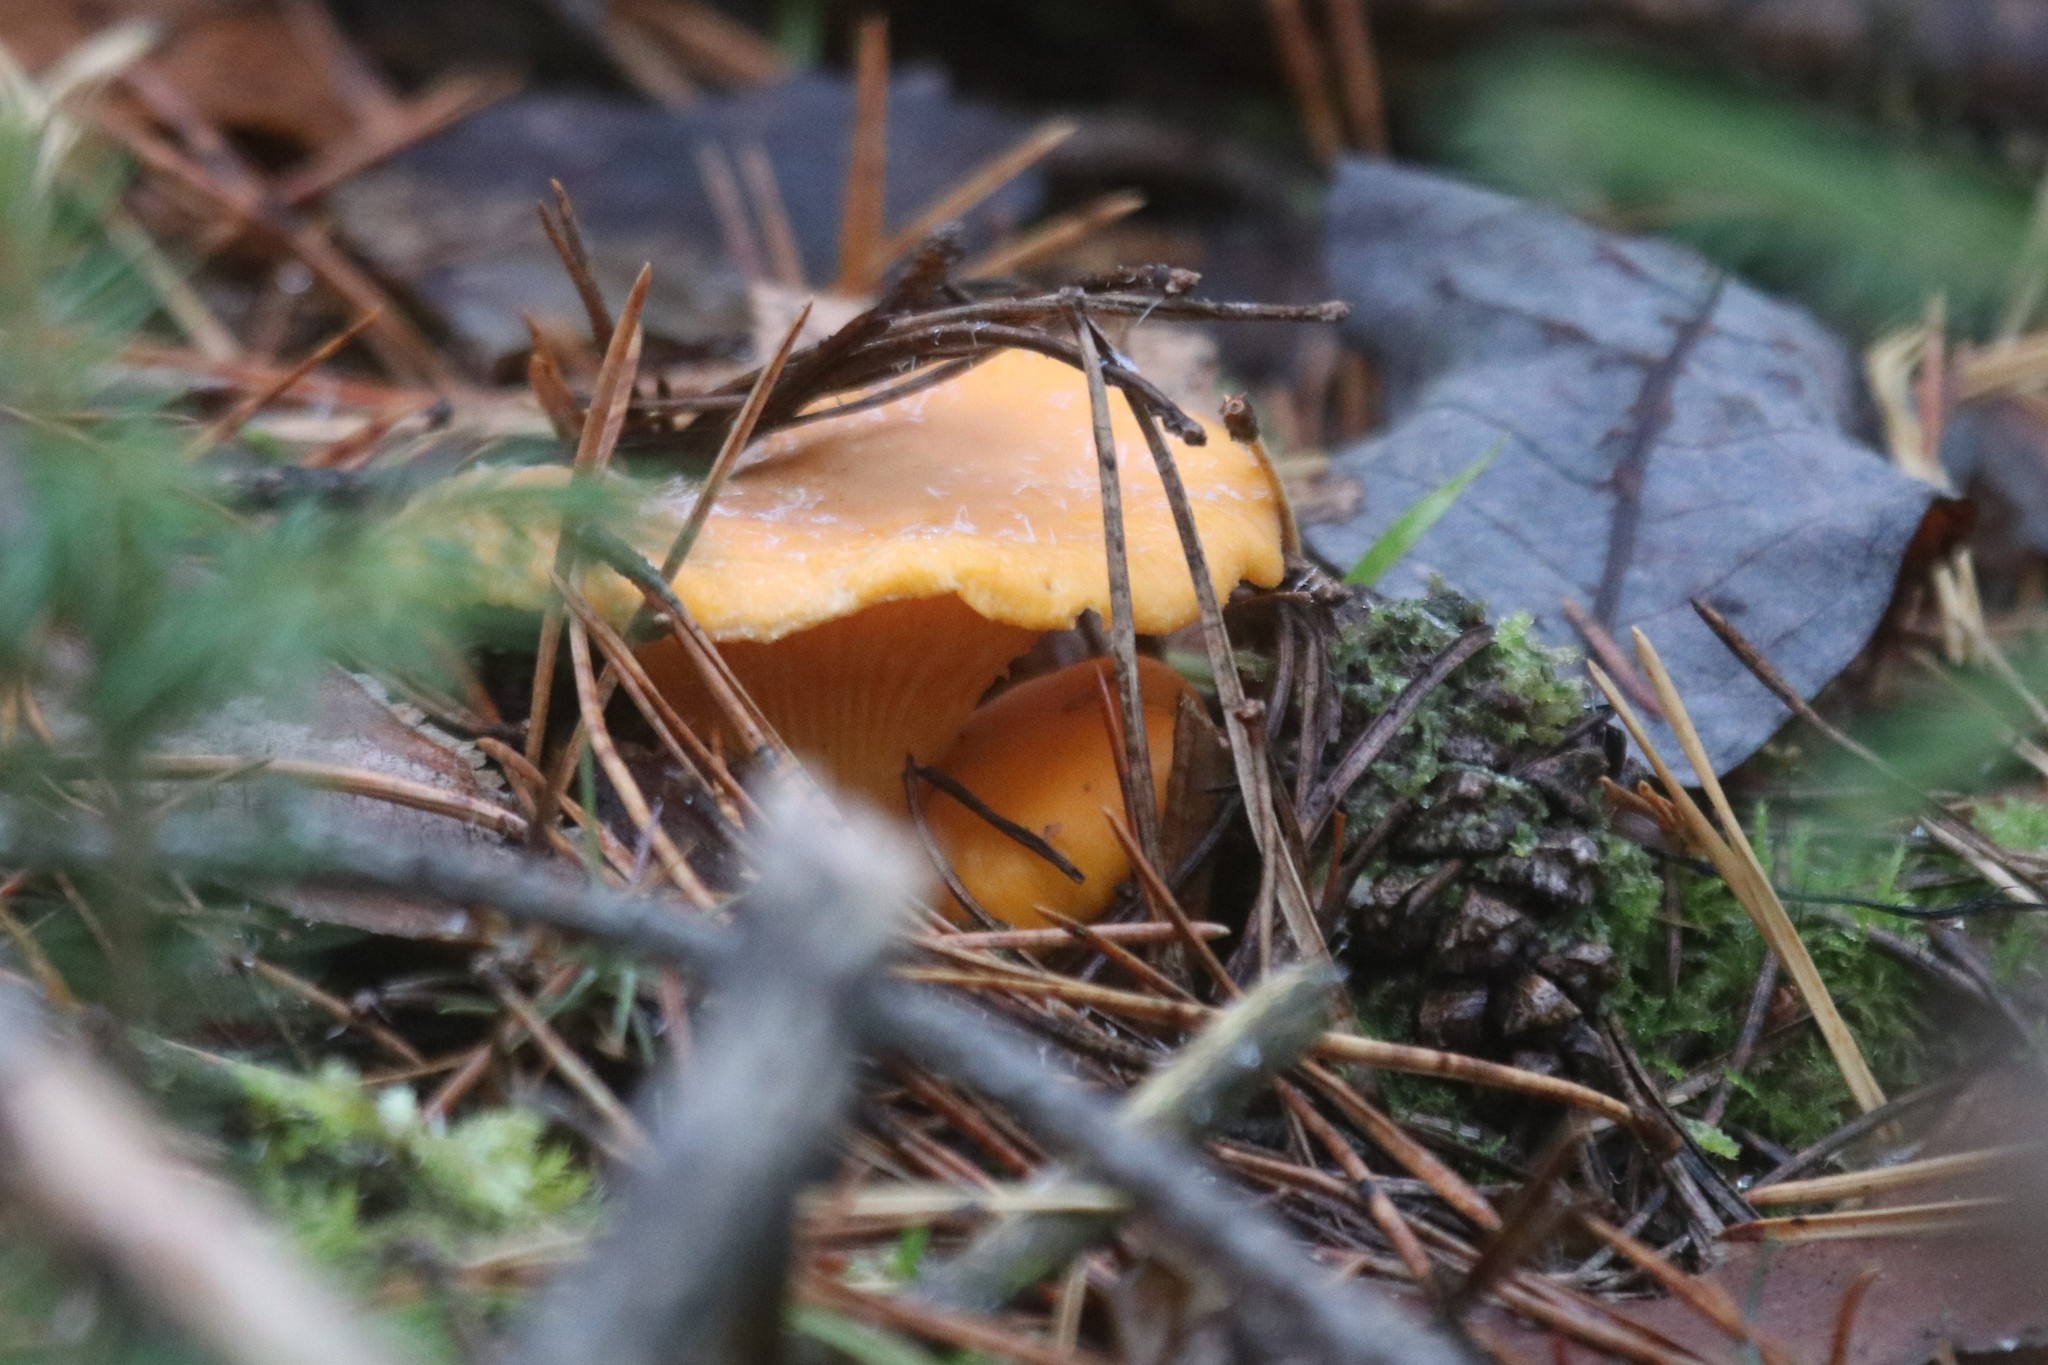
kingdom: Fungi
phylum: Basidiomycota
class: Agaricomycetes
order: Cantharellales
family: Hydnaceae
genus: Cantharellus
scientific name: Cantharellus cibarius
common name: Chanterelle
